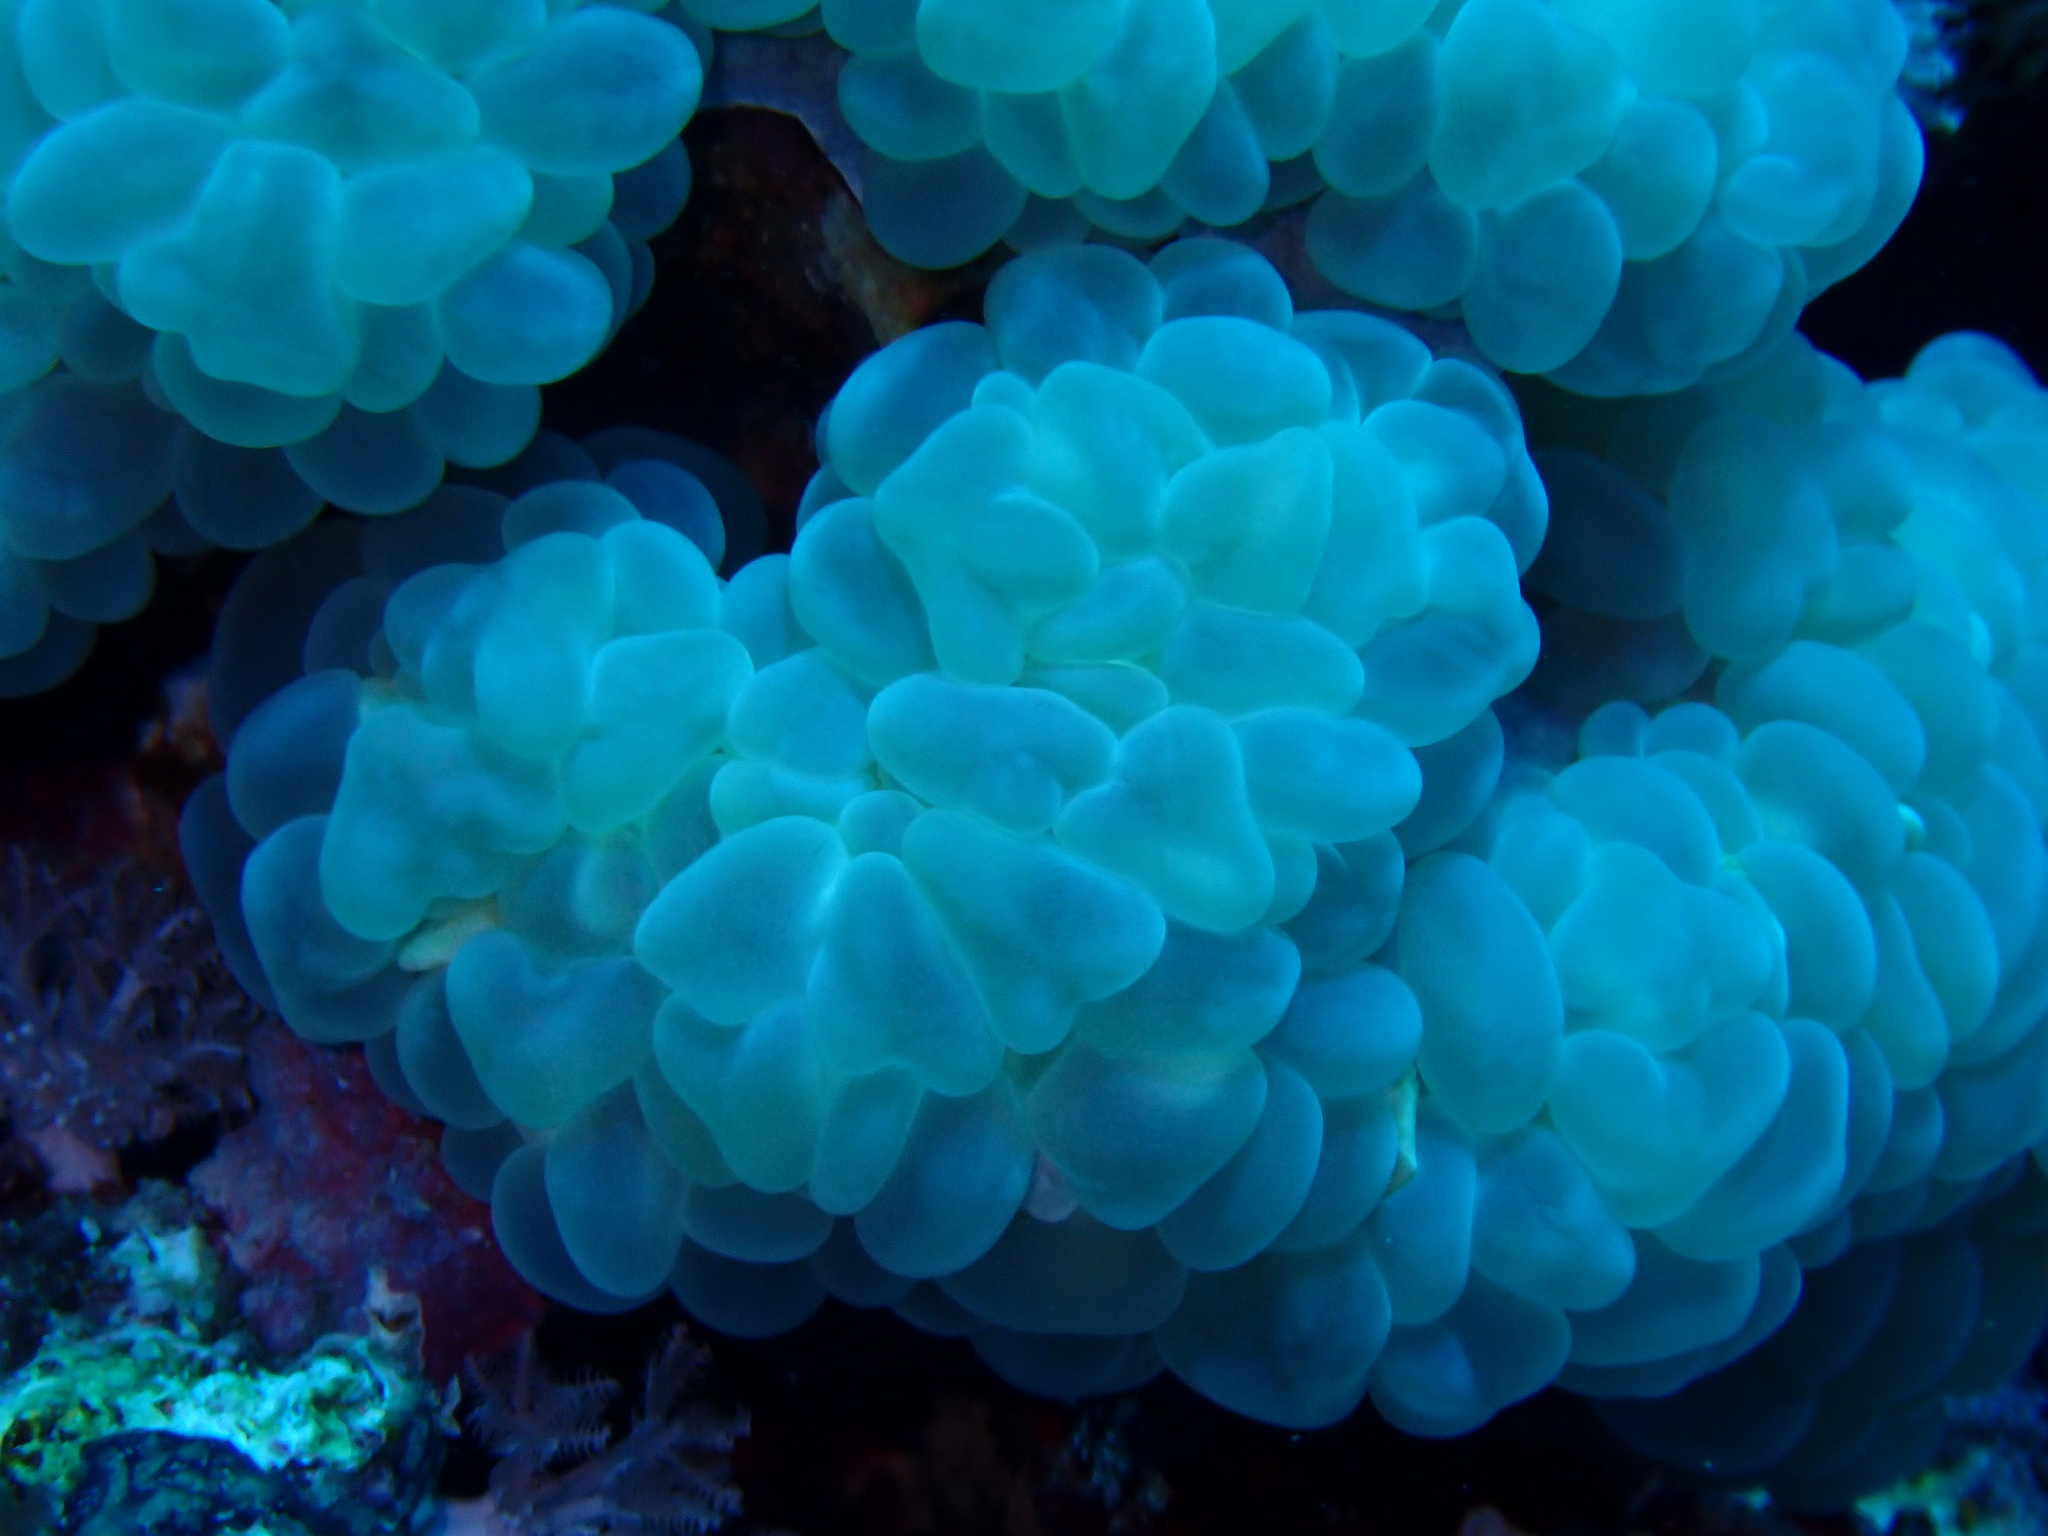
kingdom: Animalia
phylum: Cnidaria
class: Anthozoa
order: Scleractinia
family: Plerogyridae
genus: Plerogyra
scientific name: Plerogyra sinuosa
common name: Bubble coral
